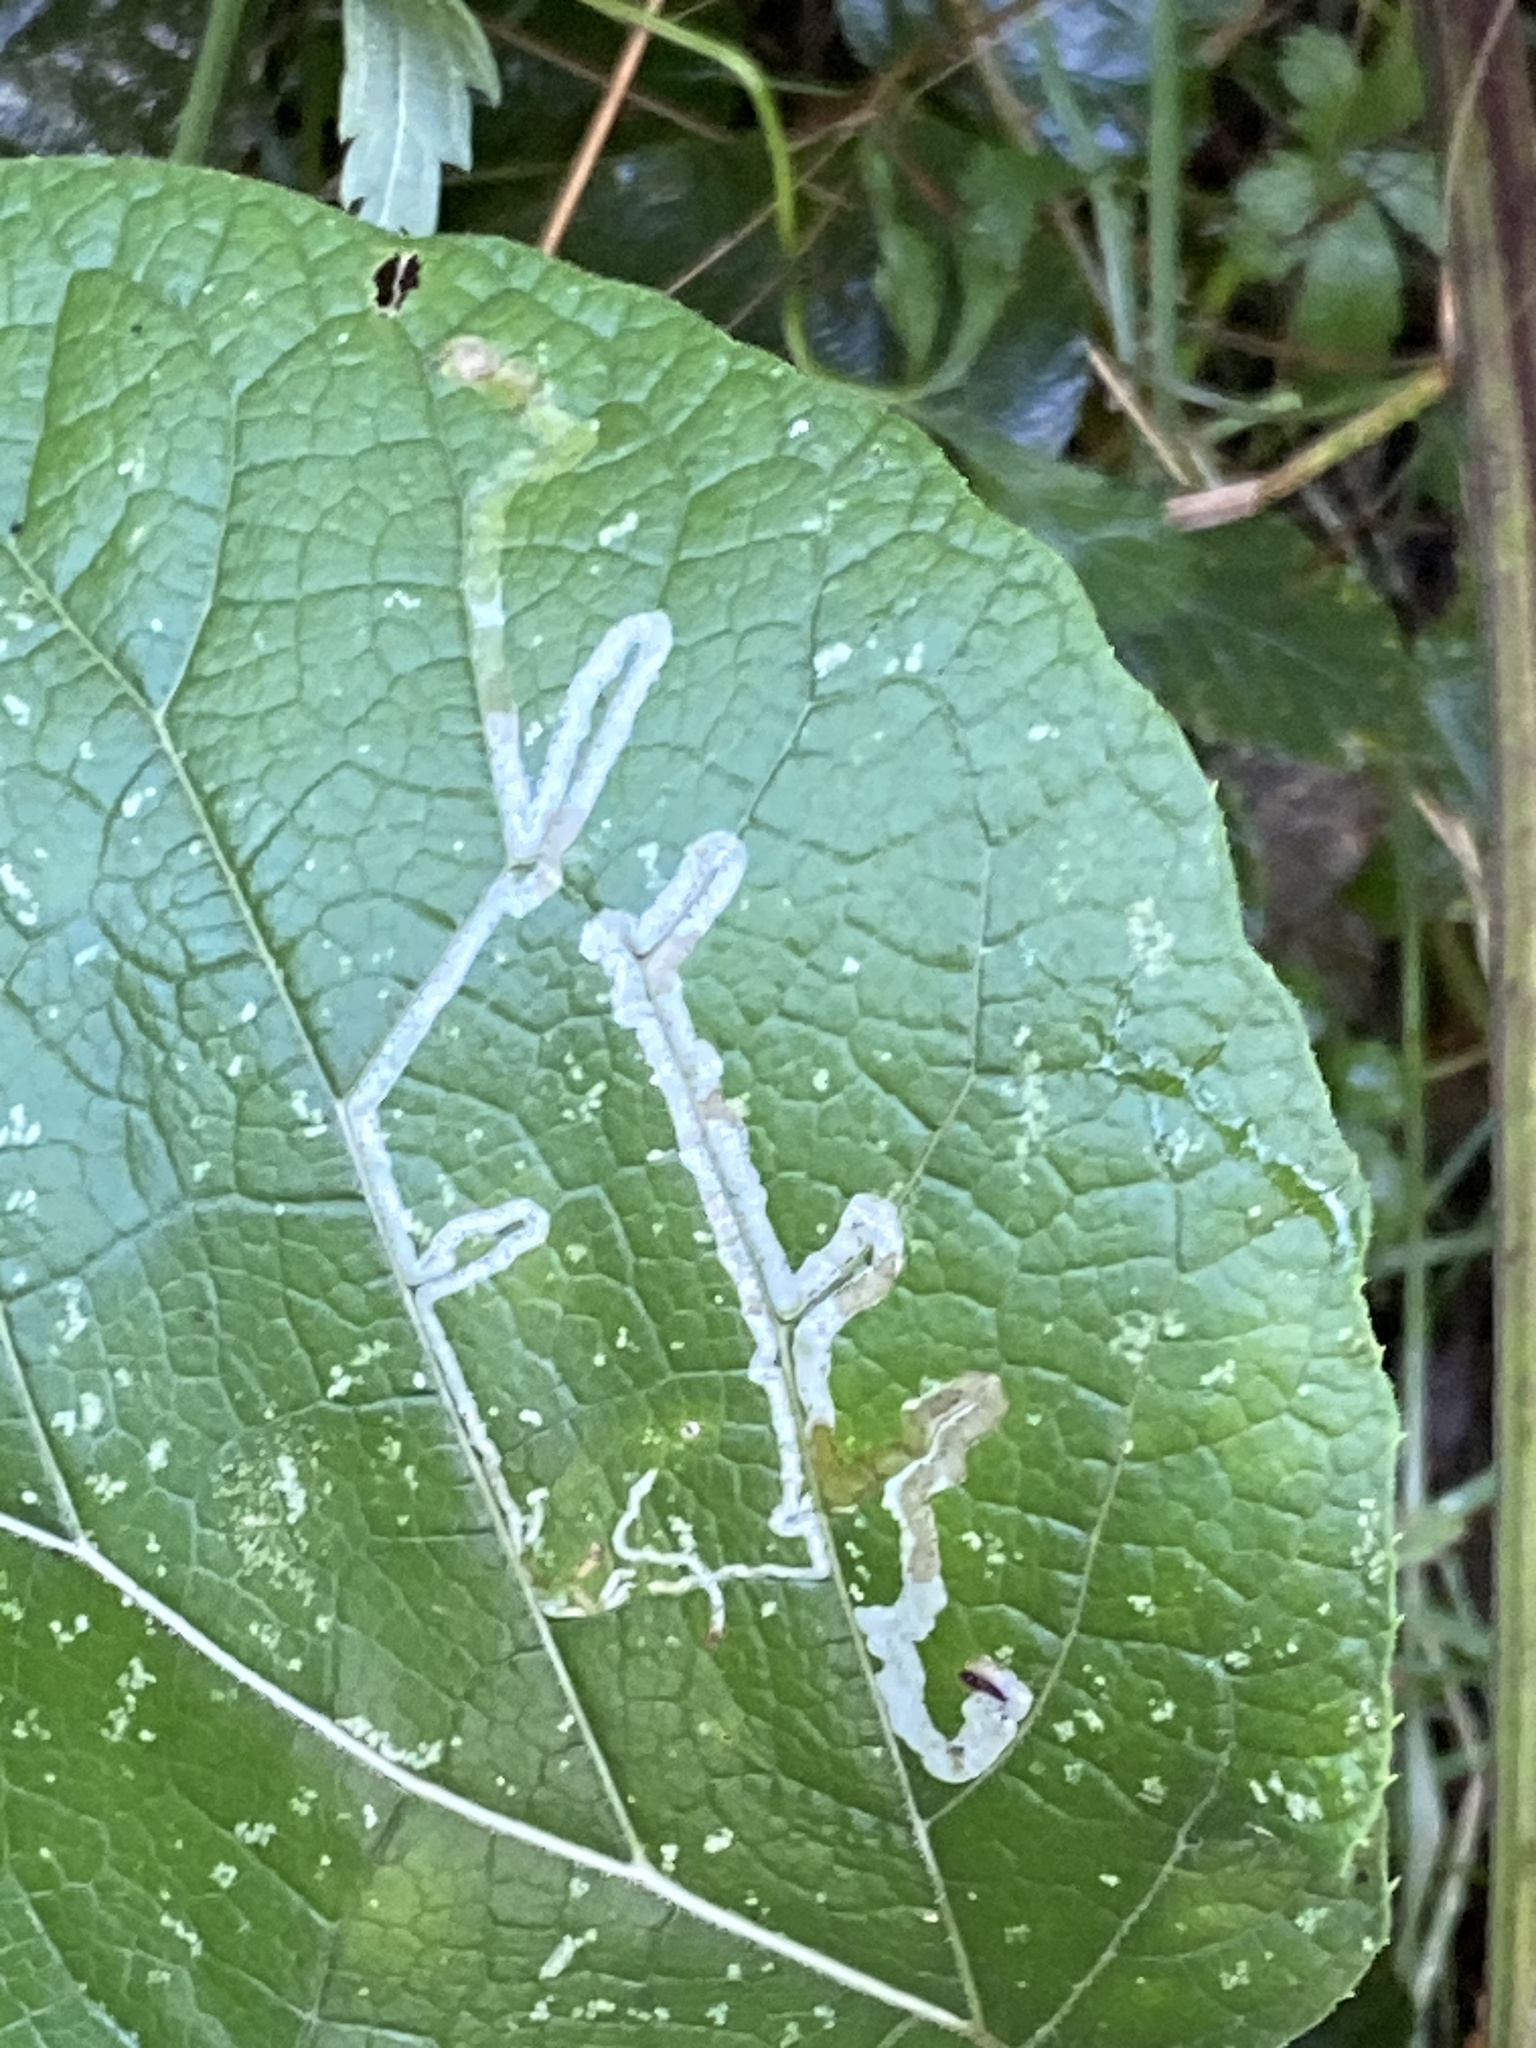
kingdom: Animalia
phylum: Arthropoda
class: Insecta
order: Diptera
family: Agromyzidae
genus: Phytomyza
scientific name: Phytomyza lappae
